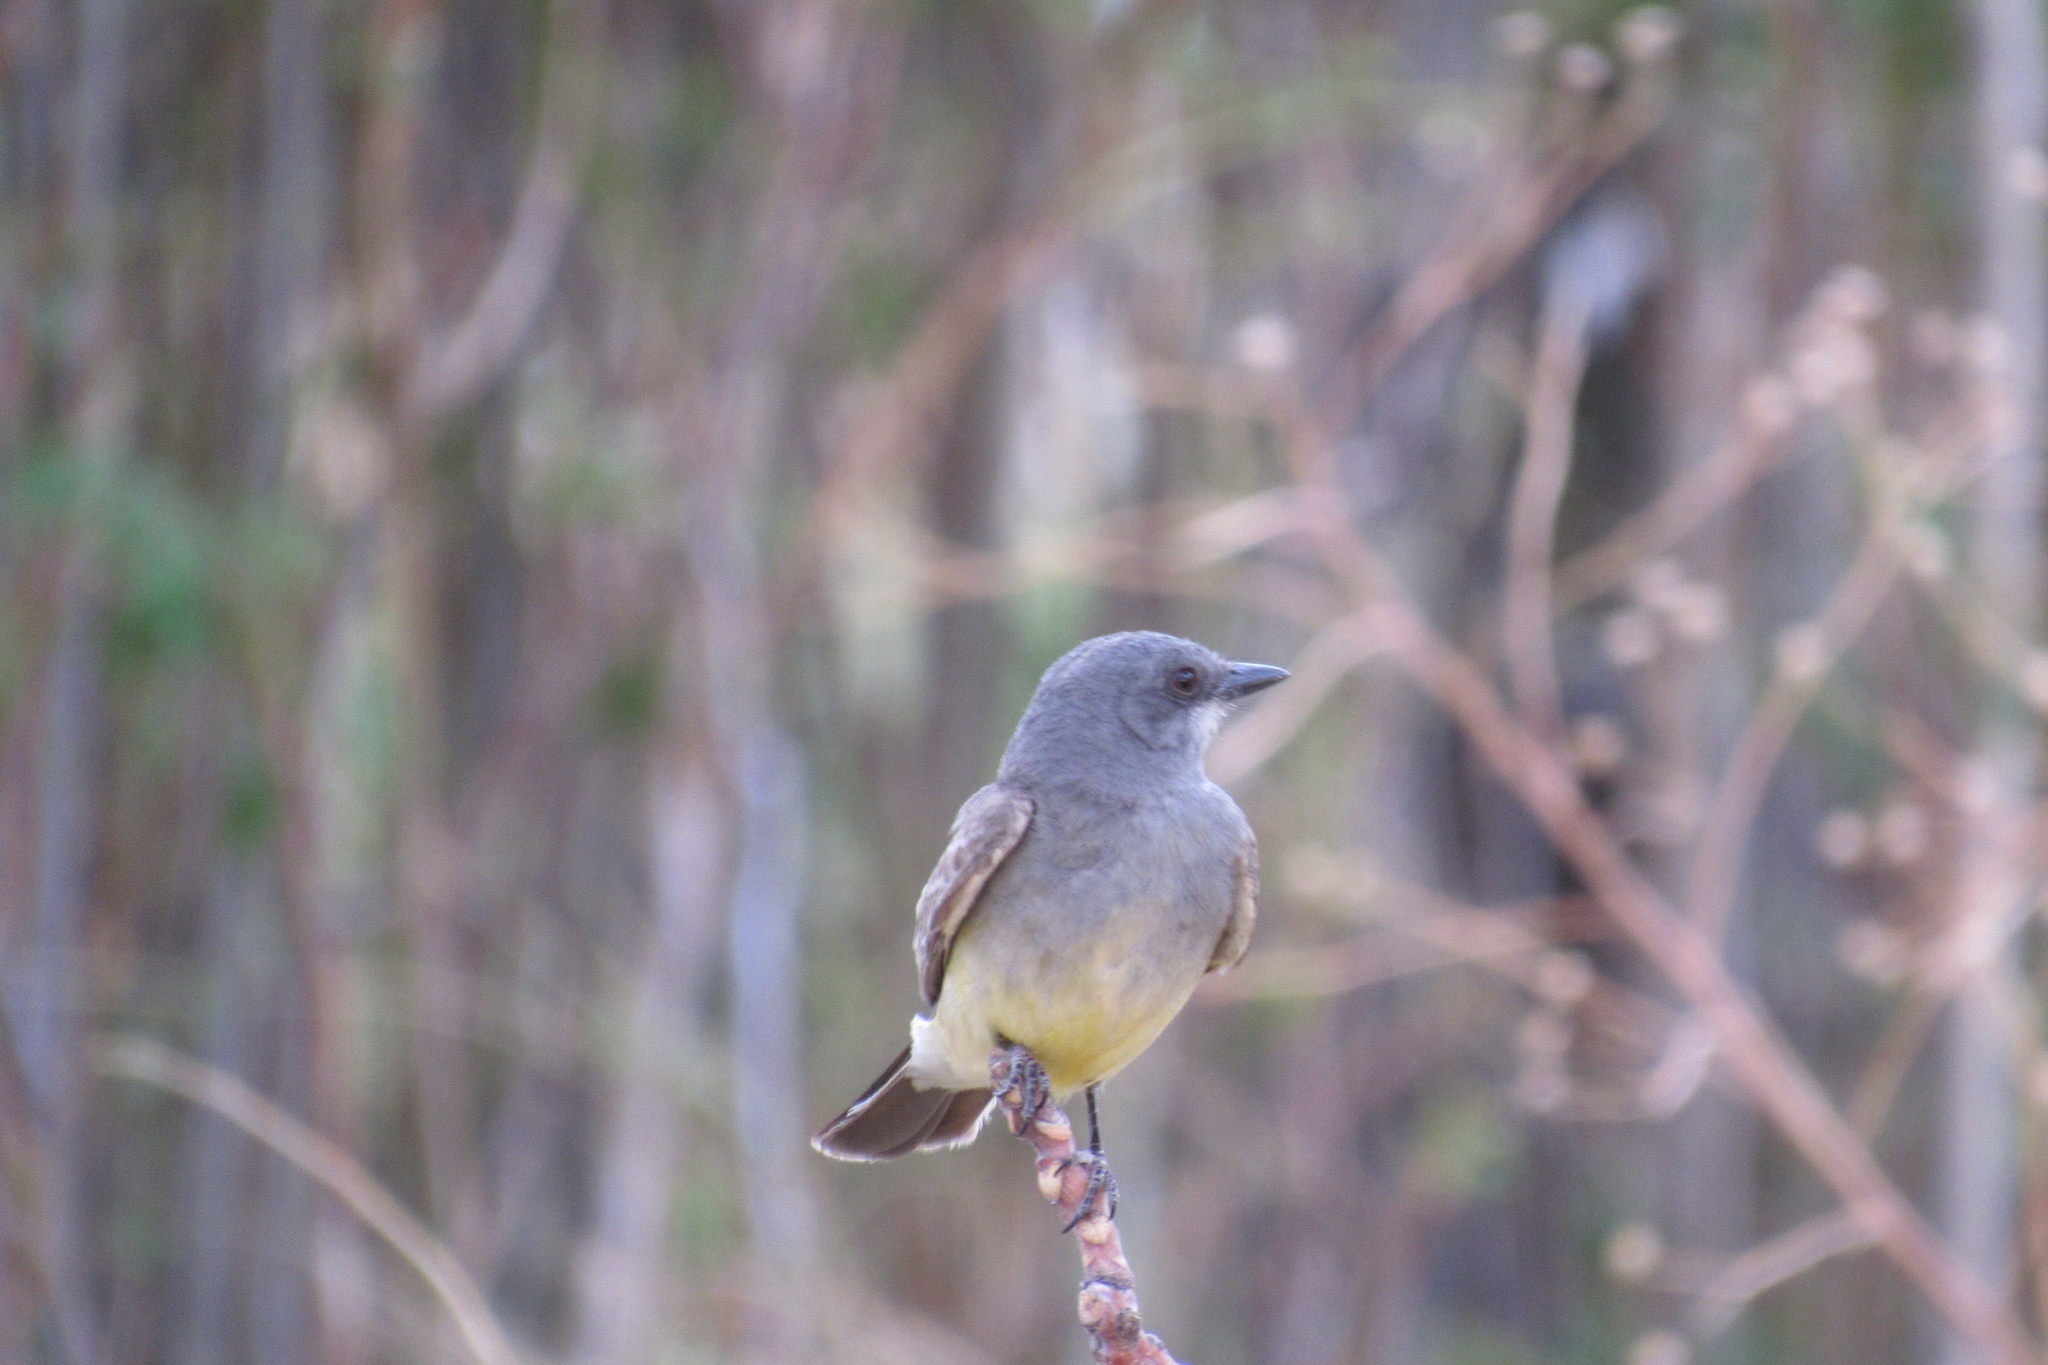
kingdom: Animalia
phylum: Chordata
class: Aves
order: Passeriformes
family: Tyrannidae
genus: Tyrannus
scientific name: Tyrannus vociferans
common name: Cassin's kingbird
